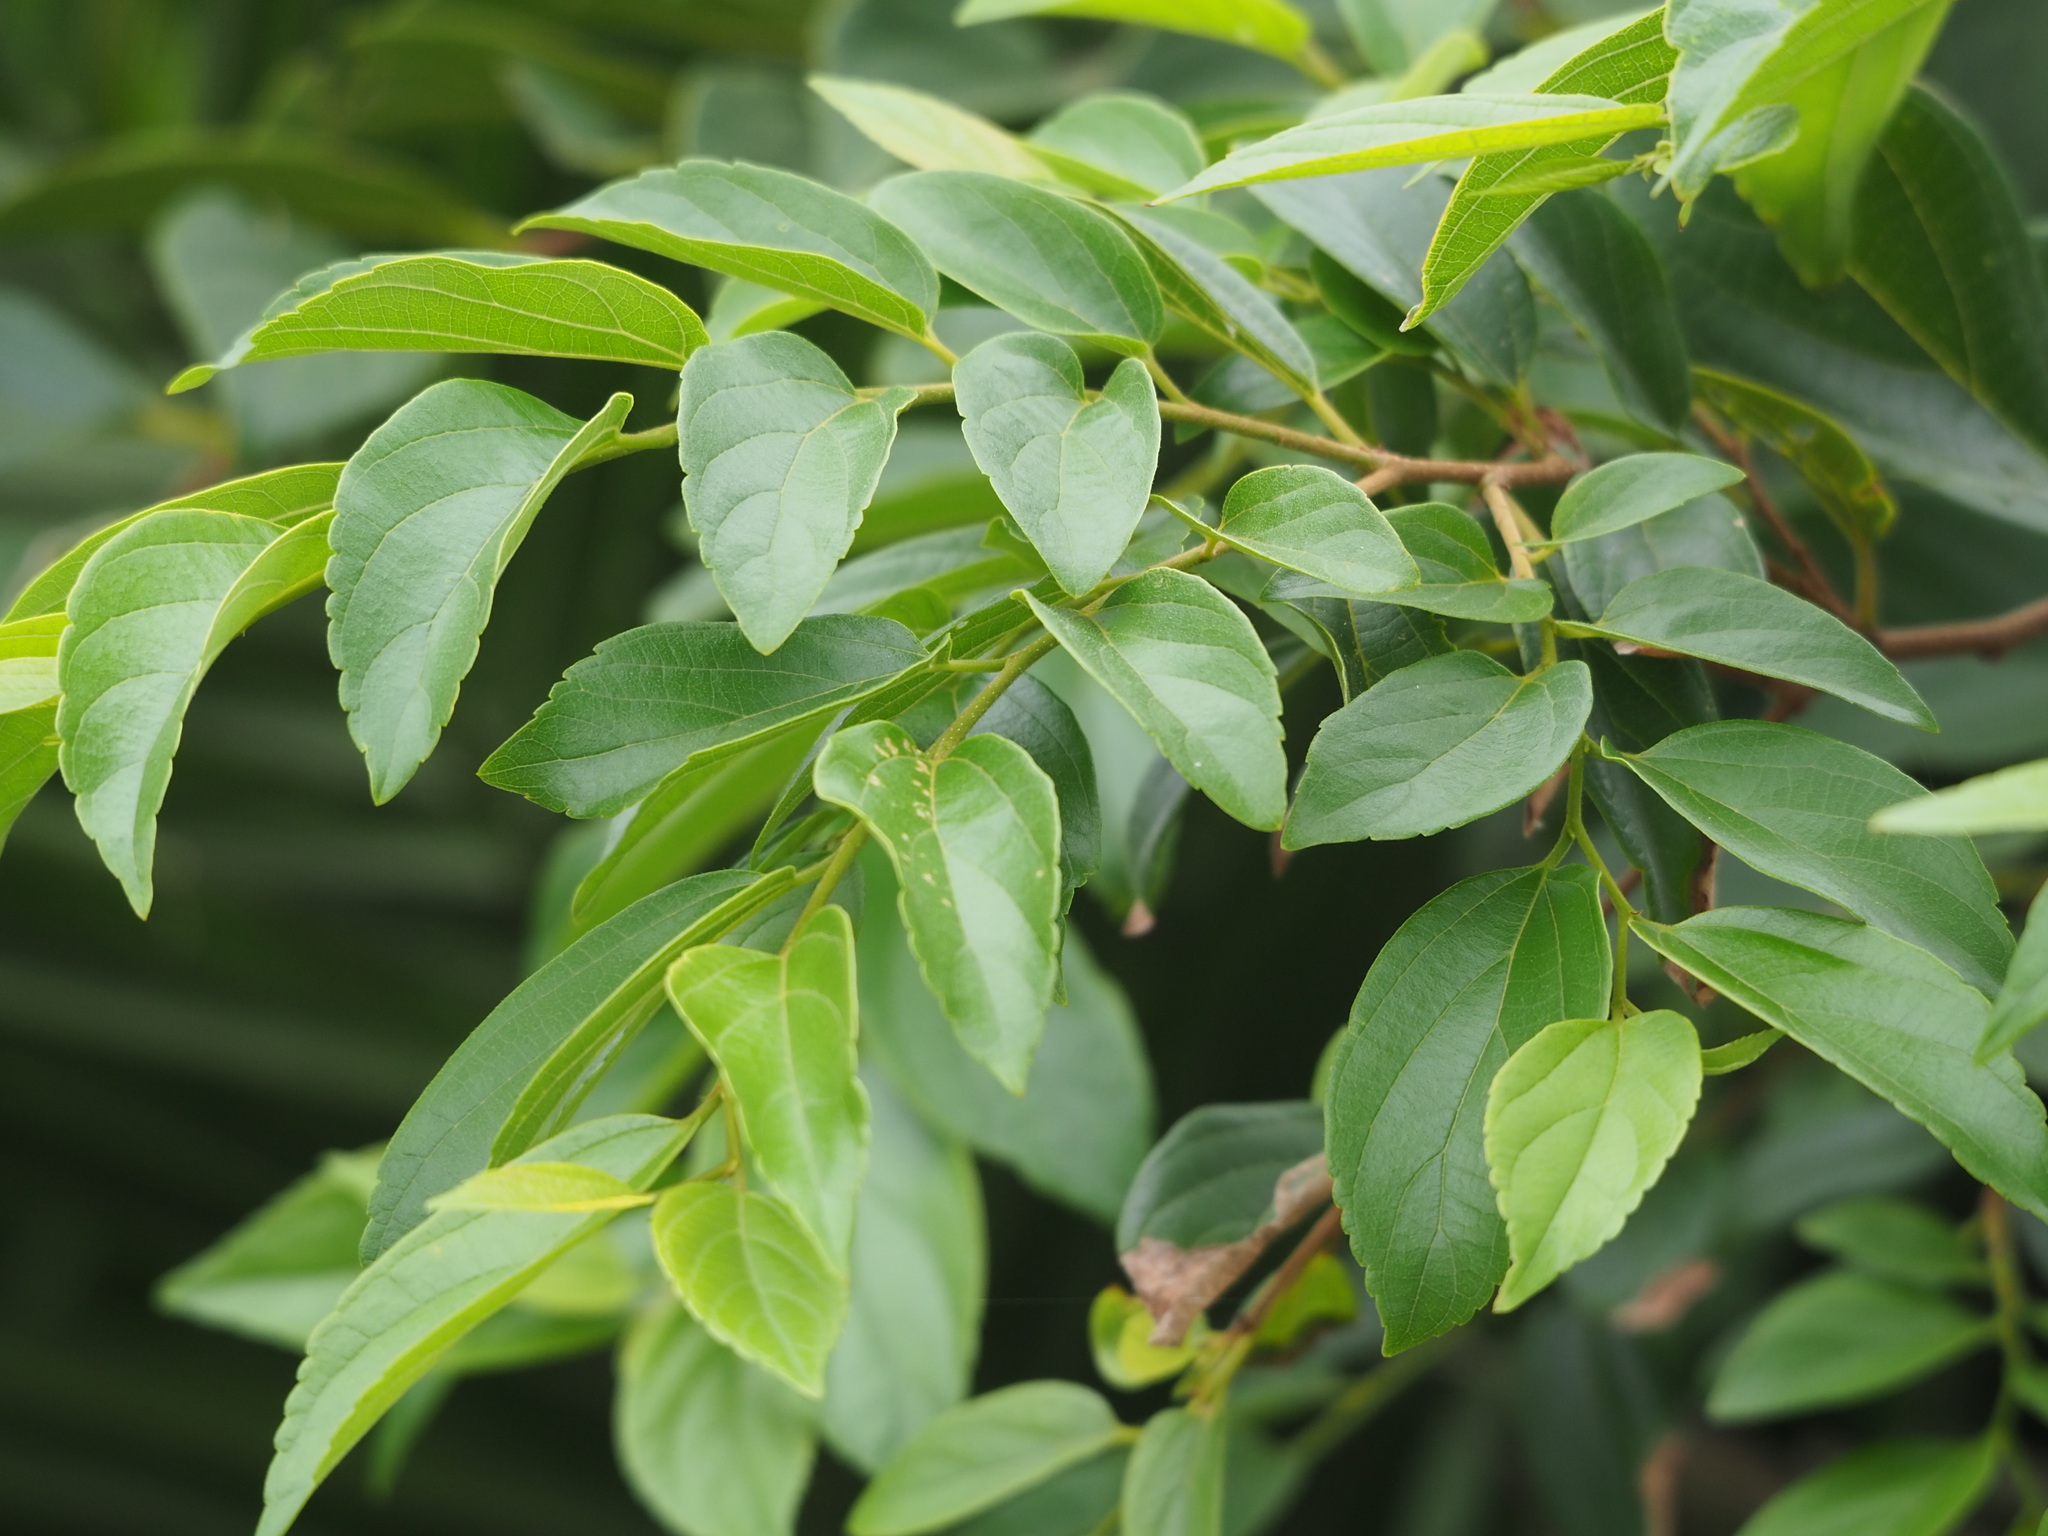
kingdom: Plantae
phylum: Tracheophyta
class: Magnoliopsida
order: Rosales
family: Cannabaceae
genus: Celtis
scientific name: Celtis sinensis
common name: Chinese hackberry
